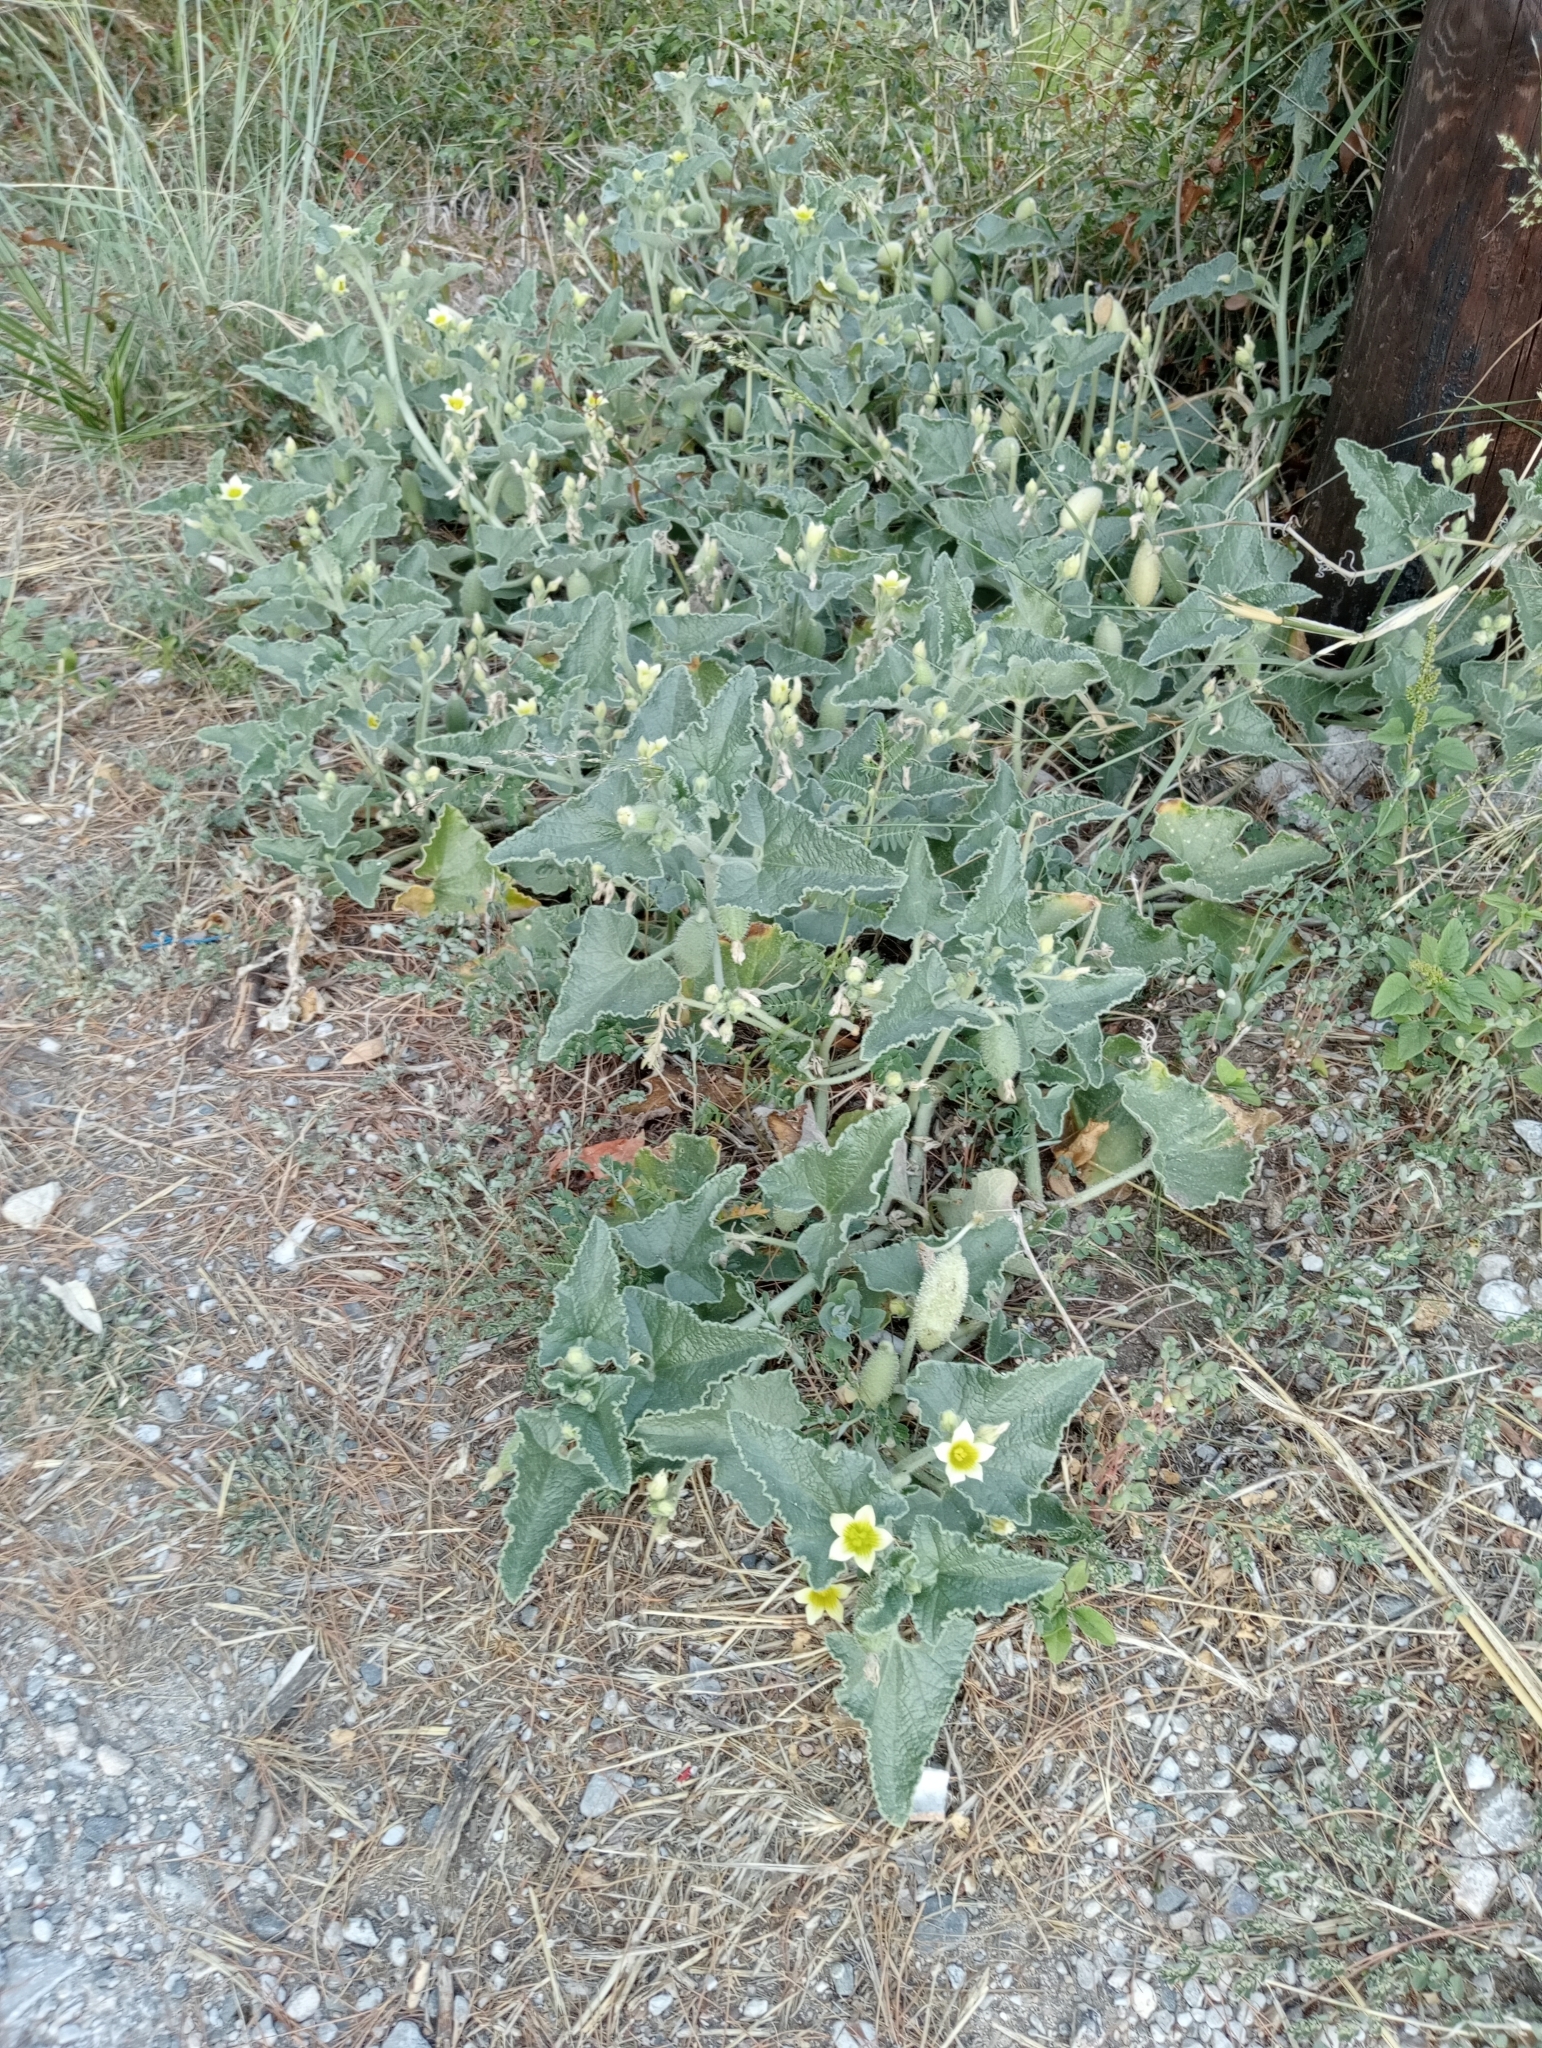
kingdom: Plantae
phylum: Tracheophyta
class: Magnoliopsida
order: Cucurbitales
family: Cucurbitaceae
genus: Ecballium
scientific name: Ecballium elaterium
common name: Squirting cucumber
